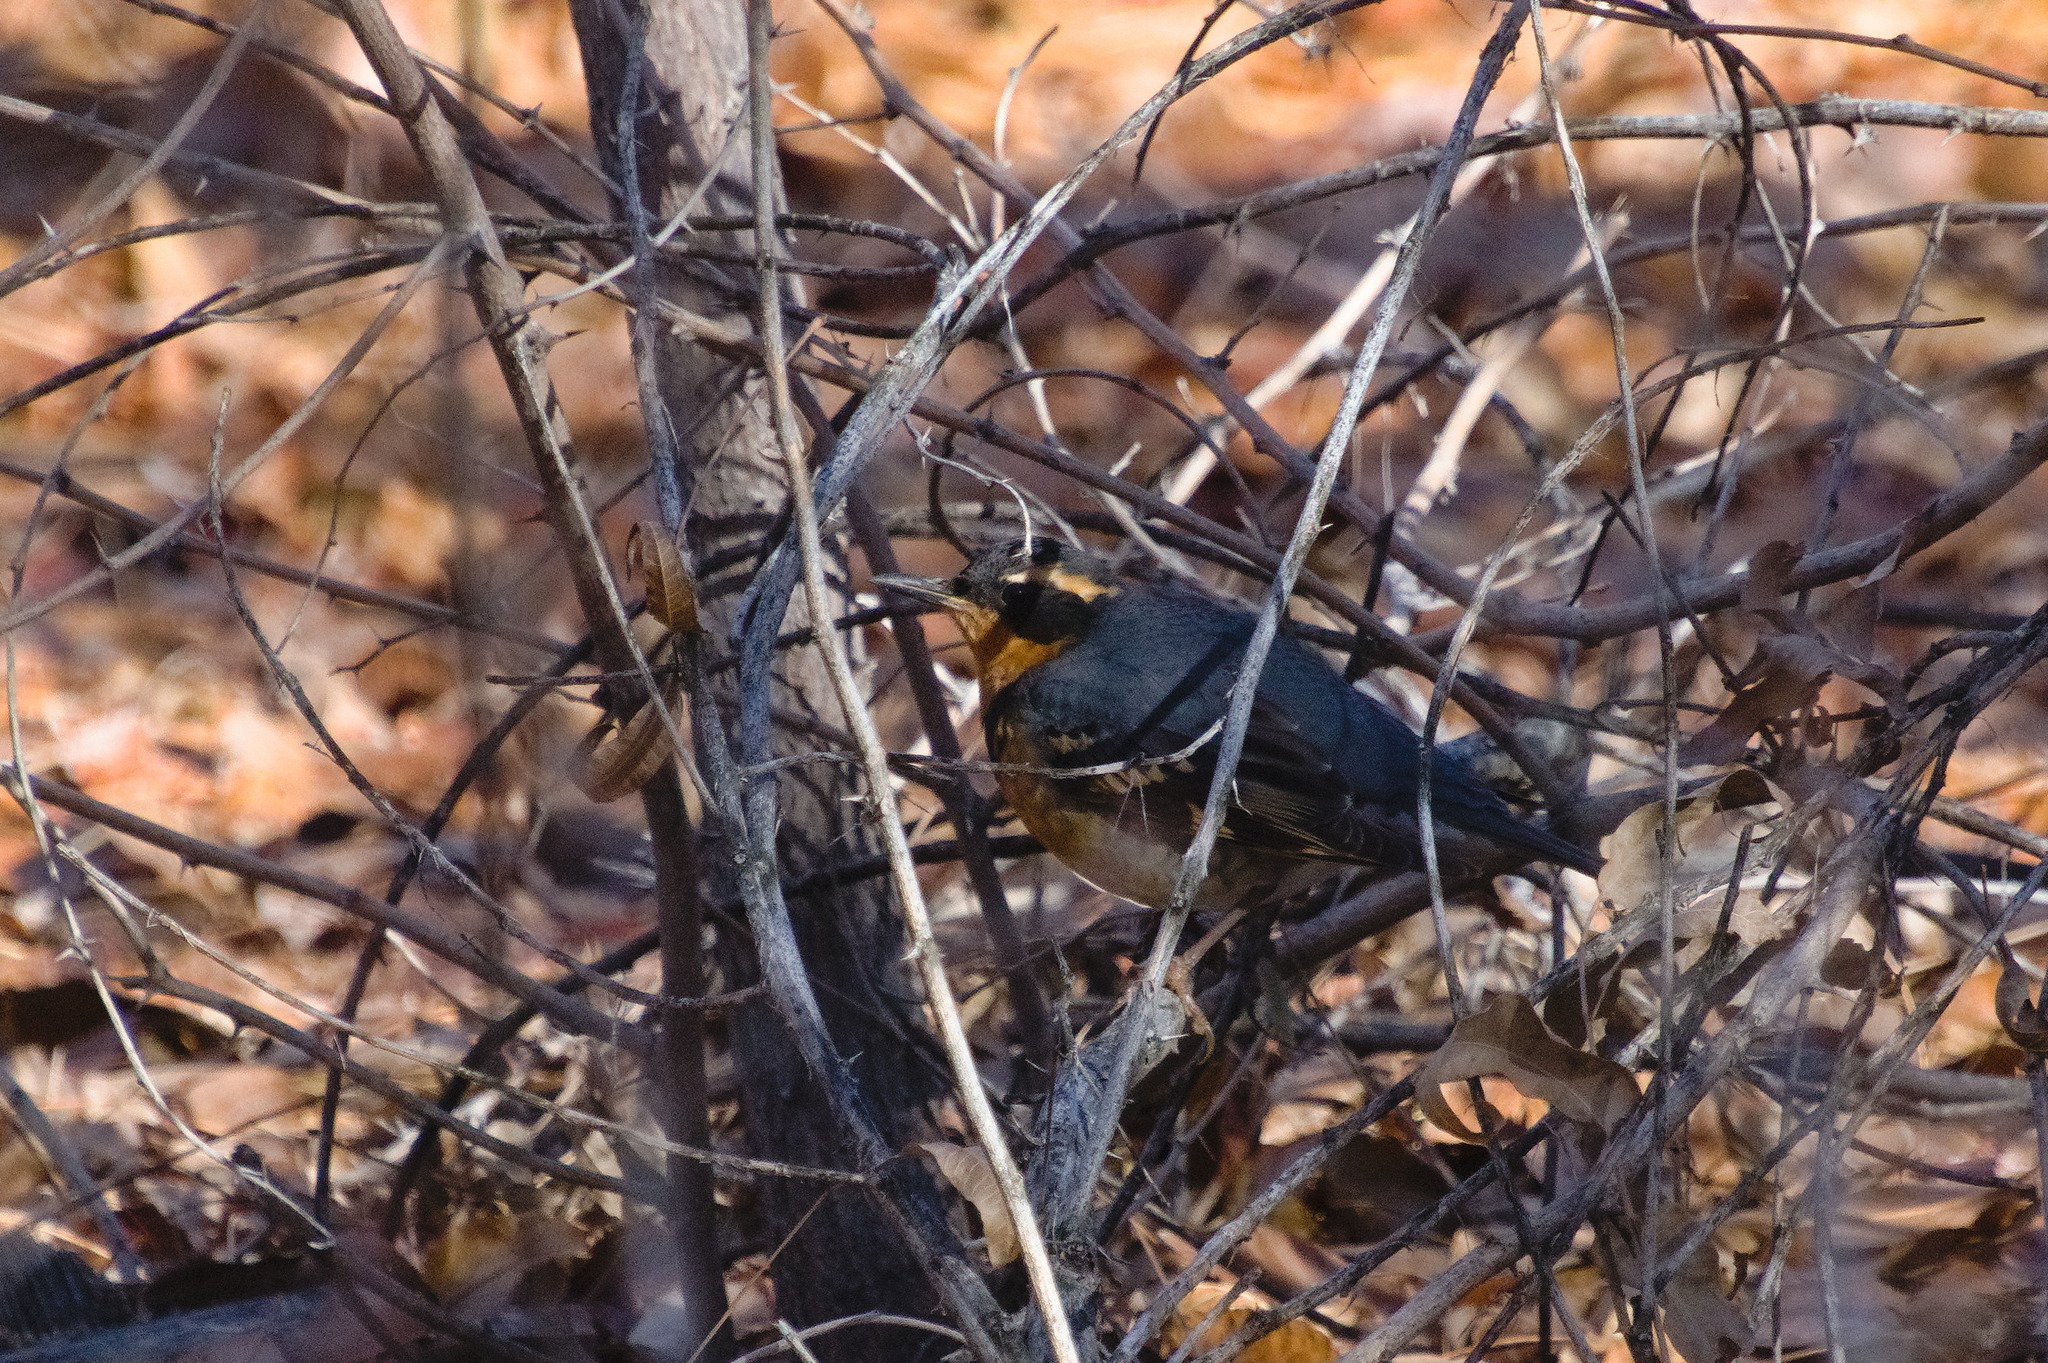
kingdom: Animalia
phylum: Chordata
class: Aves
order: Passeriformes
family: Turdidae
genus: Ixoreus
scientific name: Ixoreus naevius
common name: Varied thrush
